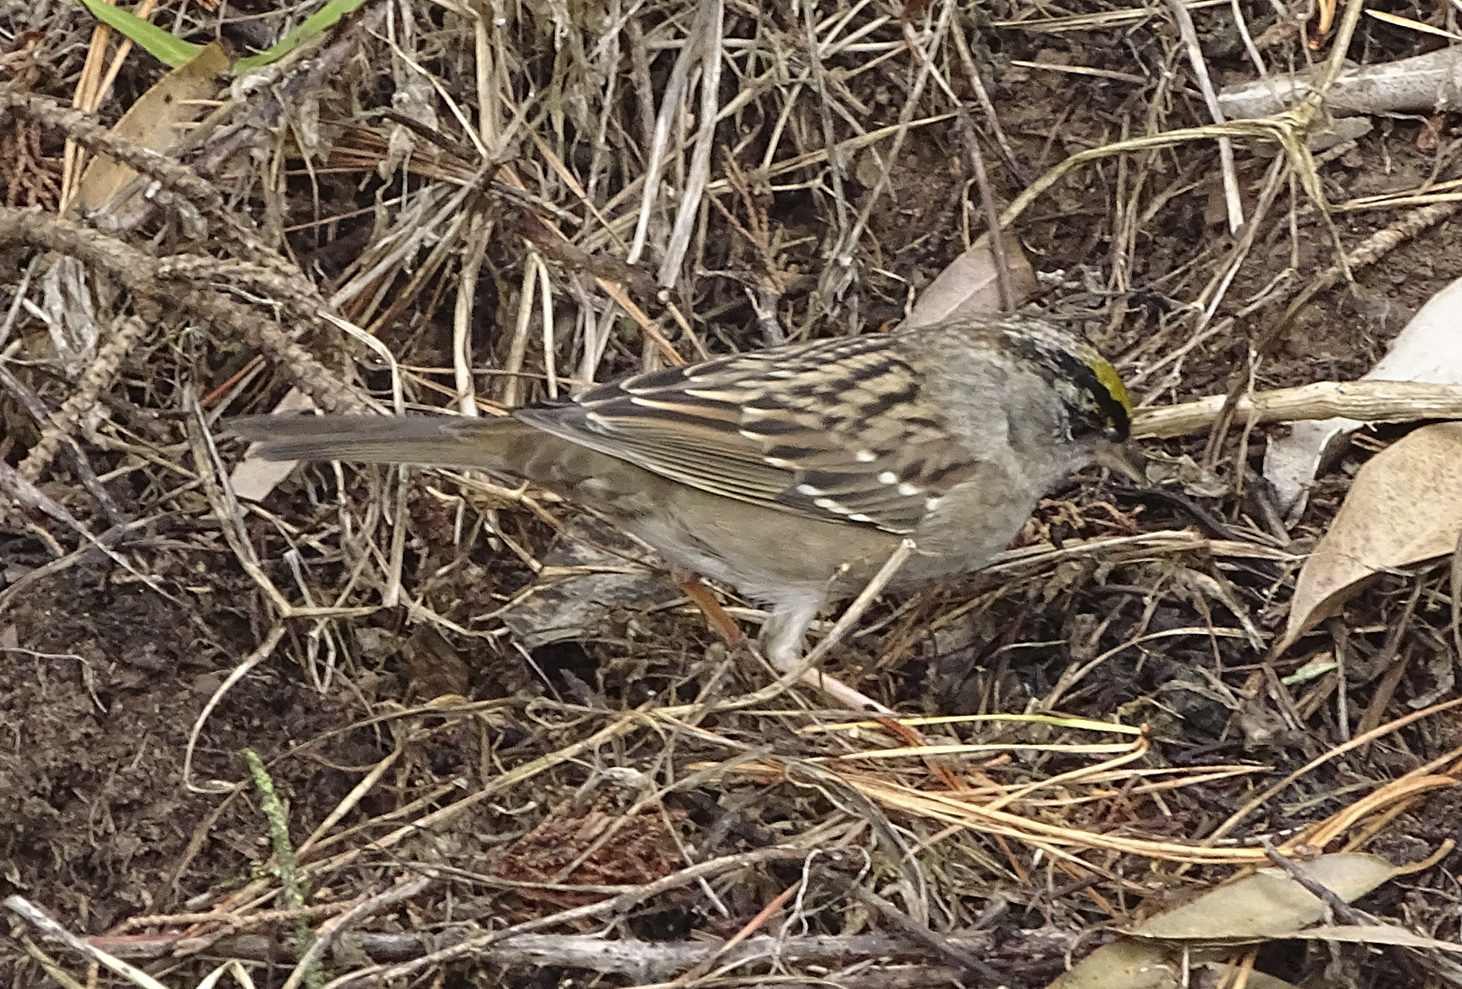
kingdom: Animalia
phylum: Chordata
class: Aves
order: Passeriformes
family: Passerellidae
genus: Zonotrichia
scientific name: Zonotrichia atricapilla
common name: Golden-crowned sparrow
